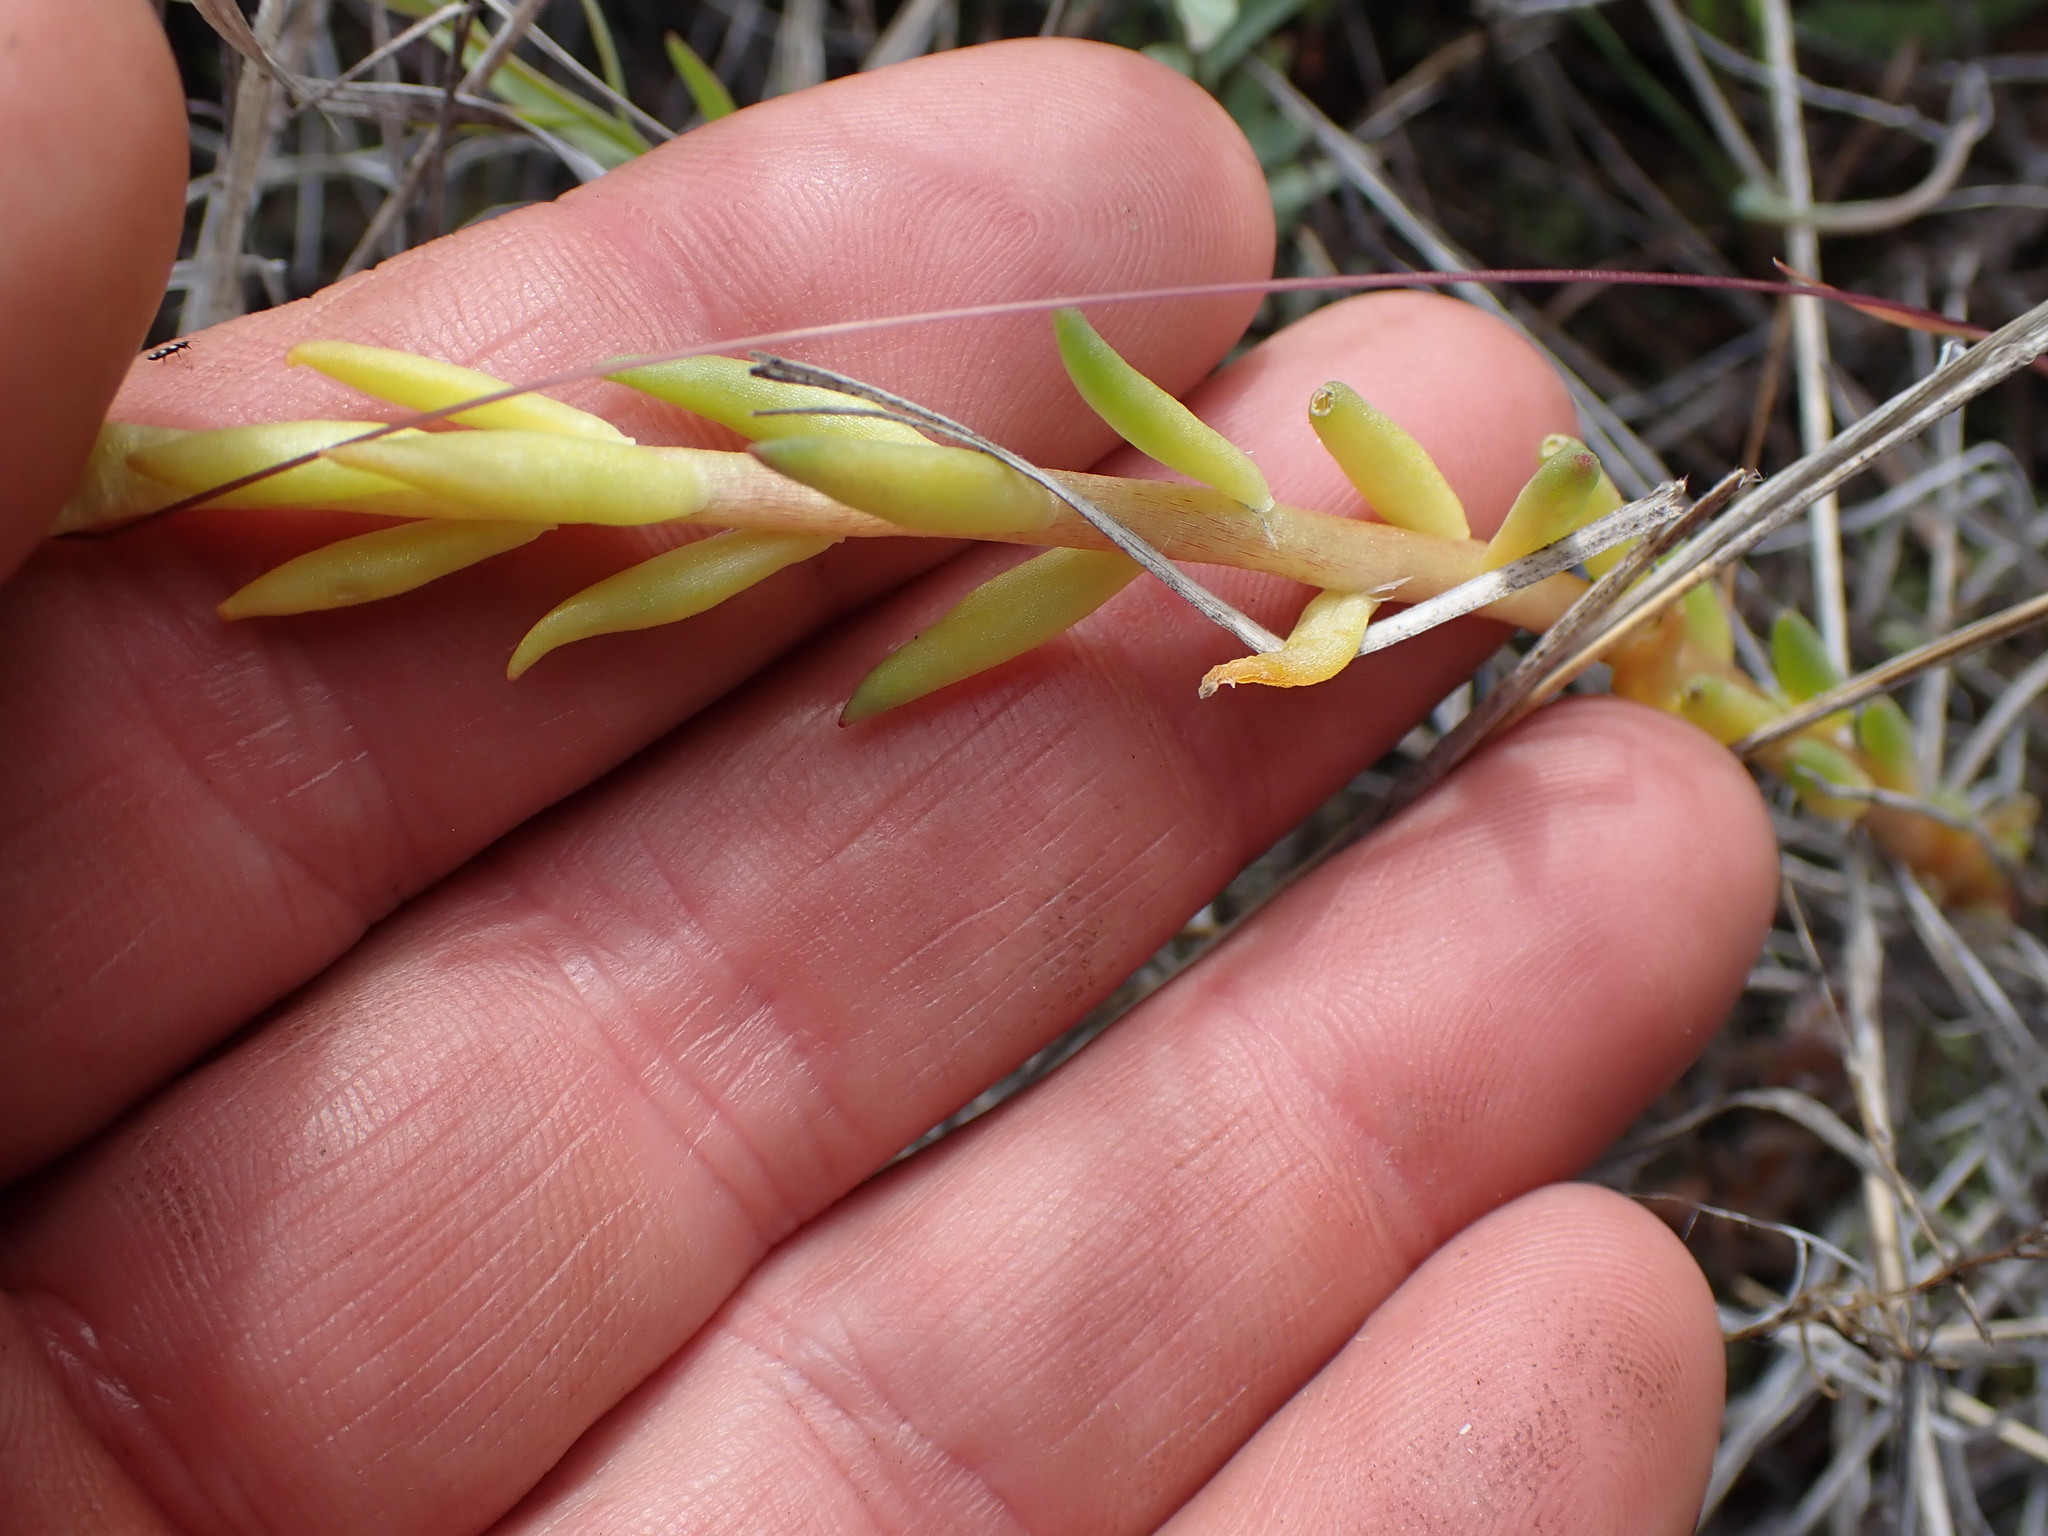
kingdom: Plantae
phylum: Tracheophyta
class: Magnoliopsida
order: Saxifragales
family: Crassulaceae
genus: Sedum
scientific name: Sedum lanceolatum
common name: Common stonecrop
